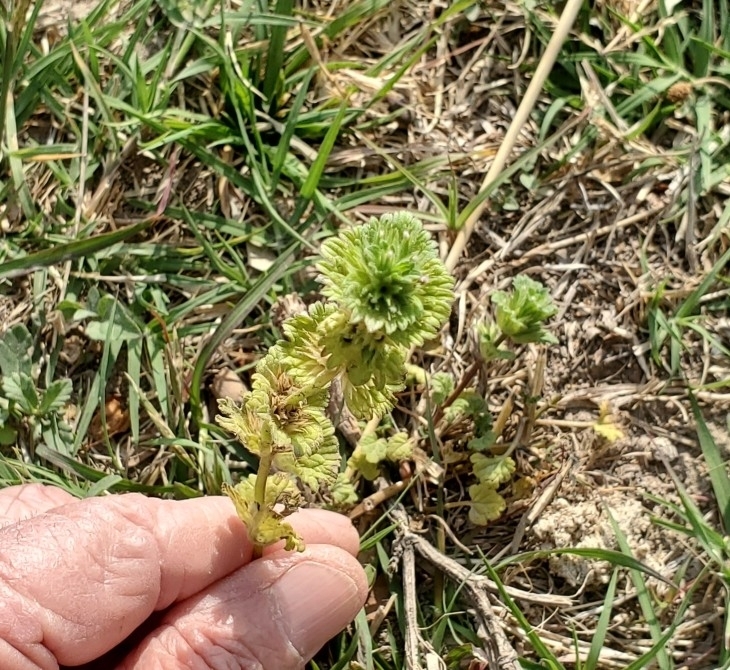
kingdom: Plantae
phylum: Tracheophyta
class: Magnoliopsida
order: Lamiales
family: Lamiaceae
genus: Lamium
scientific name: Lamium amplexicaule
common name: Henbit dead-nettle
